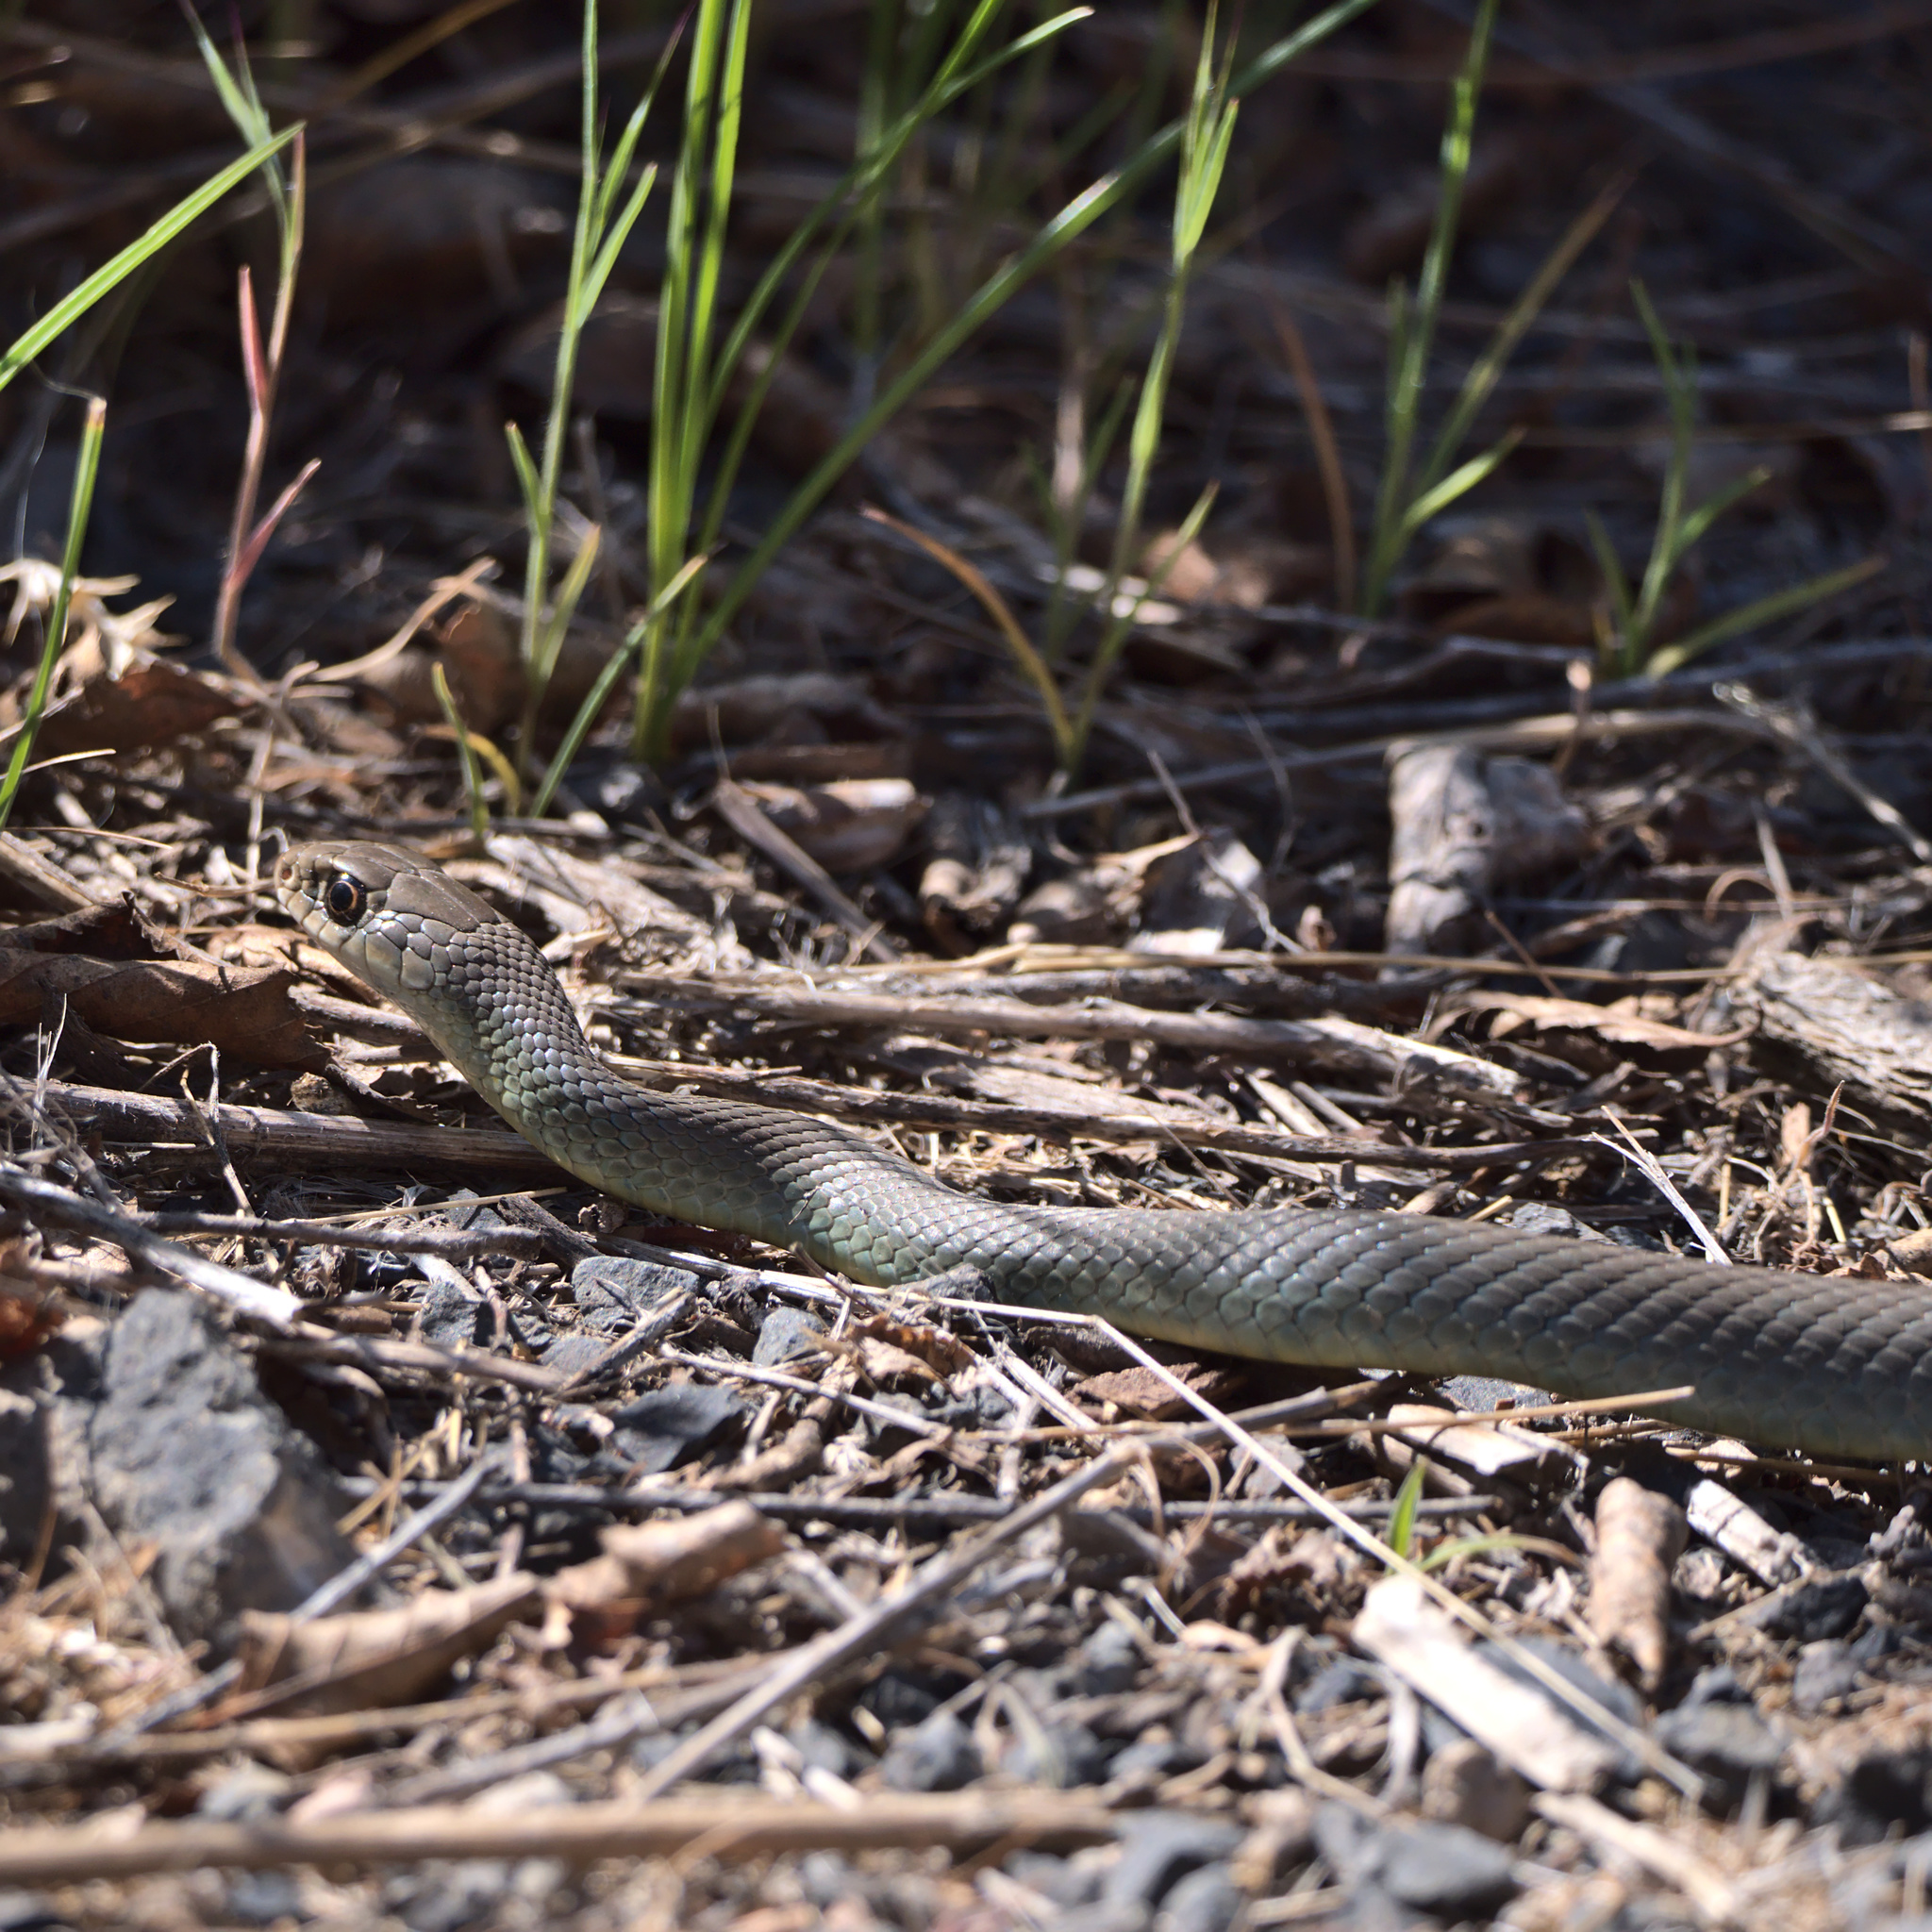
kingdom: Animalia
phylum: Chordata
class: Squamata
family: Colubridae
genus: Coluber
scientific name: Coluber constrictor
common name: Eastern racer
